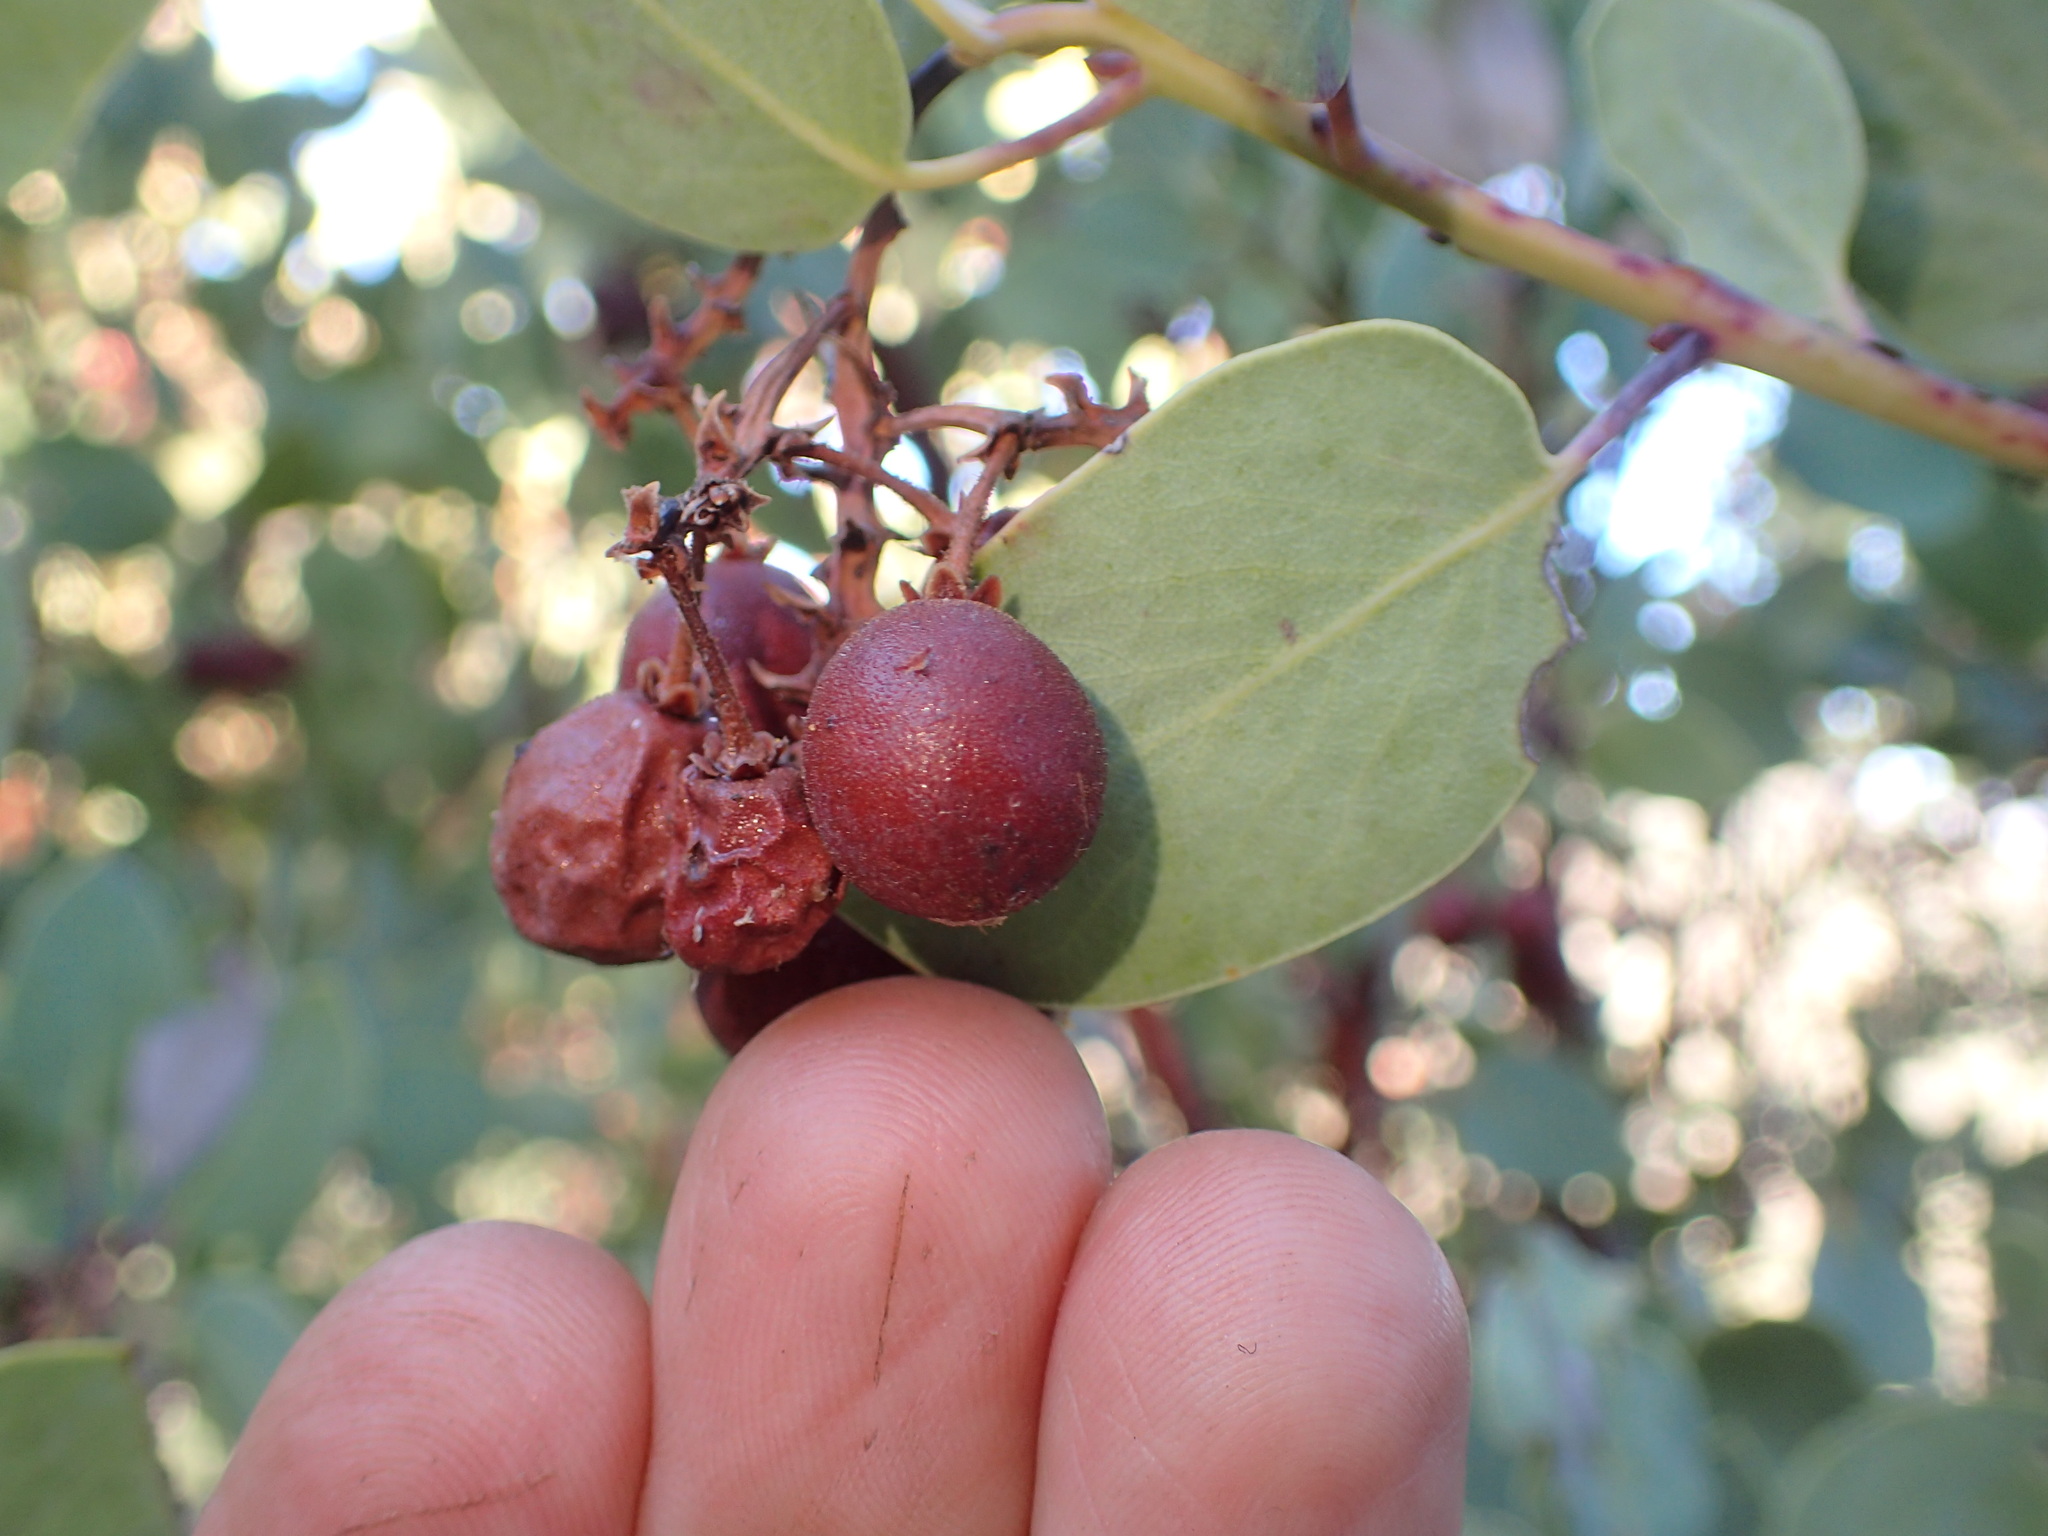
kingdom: Plantae
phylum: Tracheophyta
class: Magnoliopsida
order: Ericales
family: Ericaceae
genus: Arctostaphylos
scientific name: Arctostaphylos glauca
